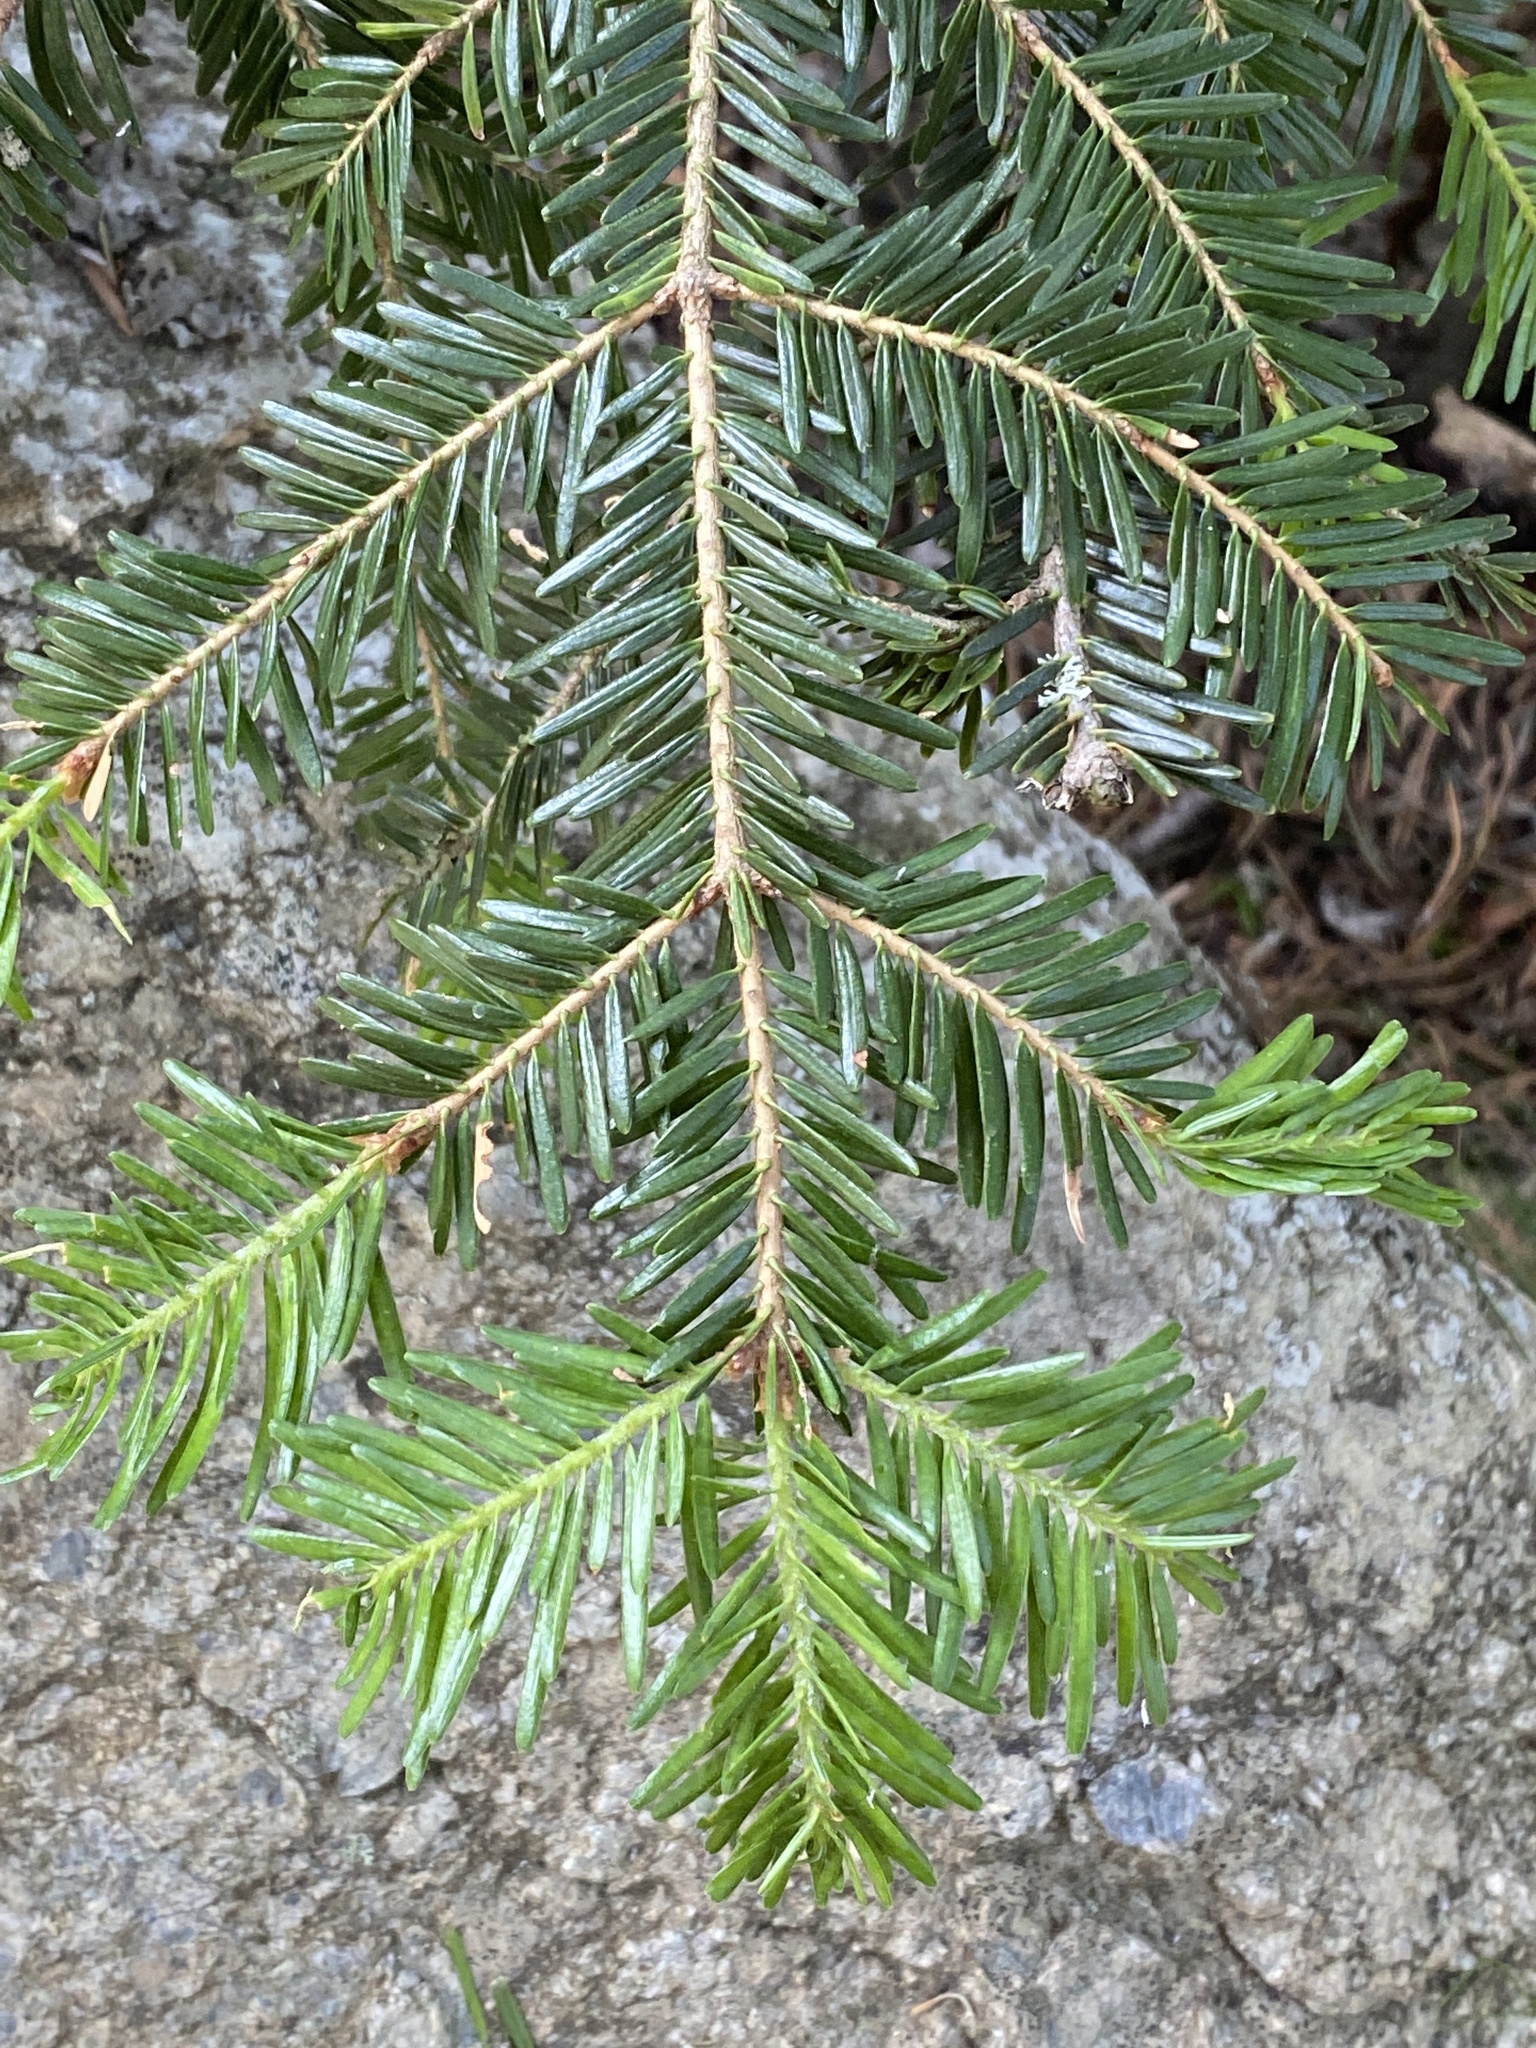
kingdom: Plantae
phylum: Tracheophyta
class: Pinopsida
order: Pinales
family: Pinaceae
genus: Abies
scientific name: Abies alba
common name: Silver fir
